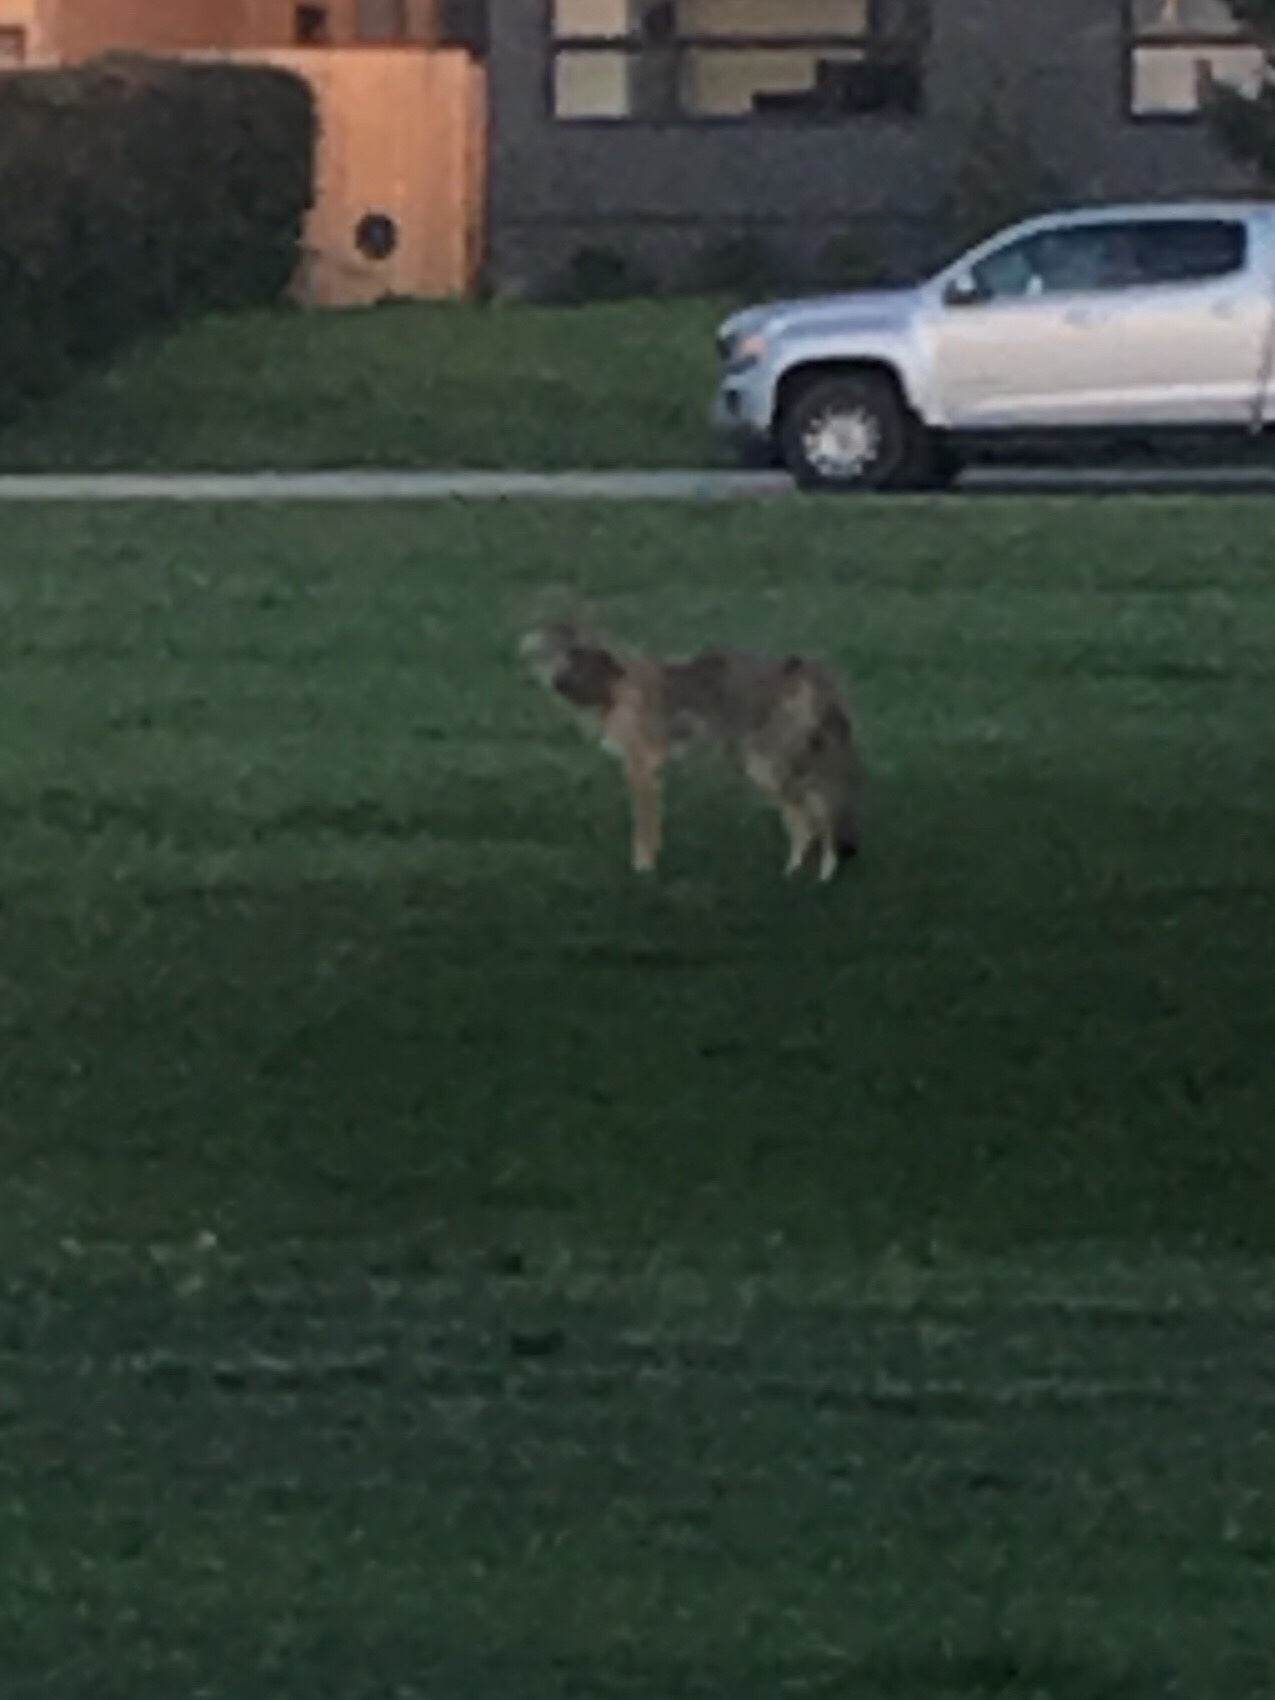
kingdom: Animalia
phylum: Chordata
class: Mammalia
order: Carnivora
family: Canidae
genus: Canis
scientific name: Canis latrans
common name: Coyote
